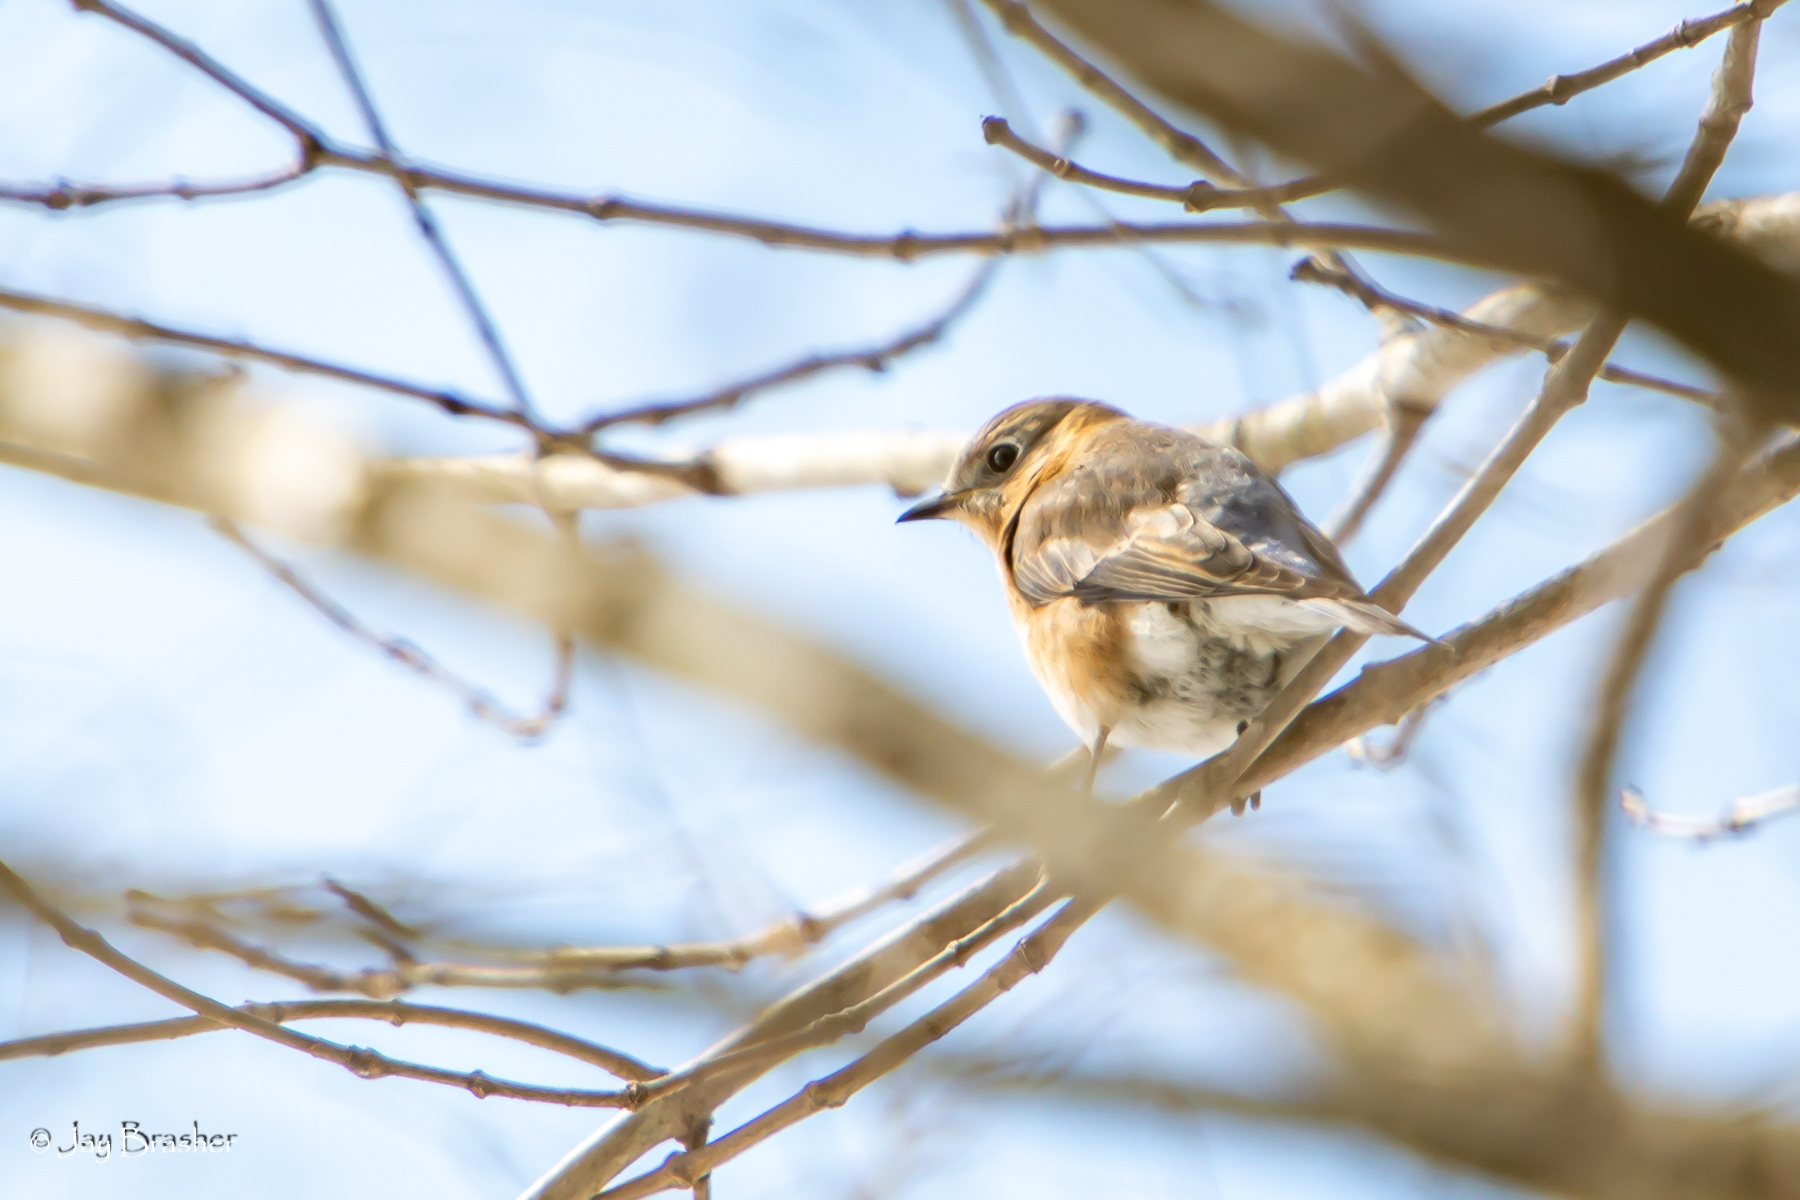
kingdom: Animalia
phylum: Chordata
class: Aves
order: Passeriformes
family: Turdidae
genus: Sialia
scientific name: Sialia sialis
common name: Eastern bluebird
